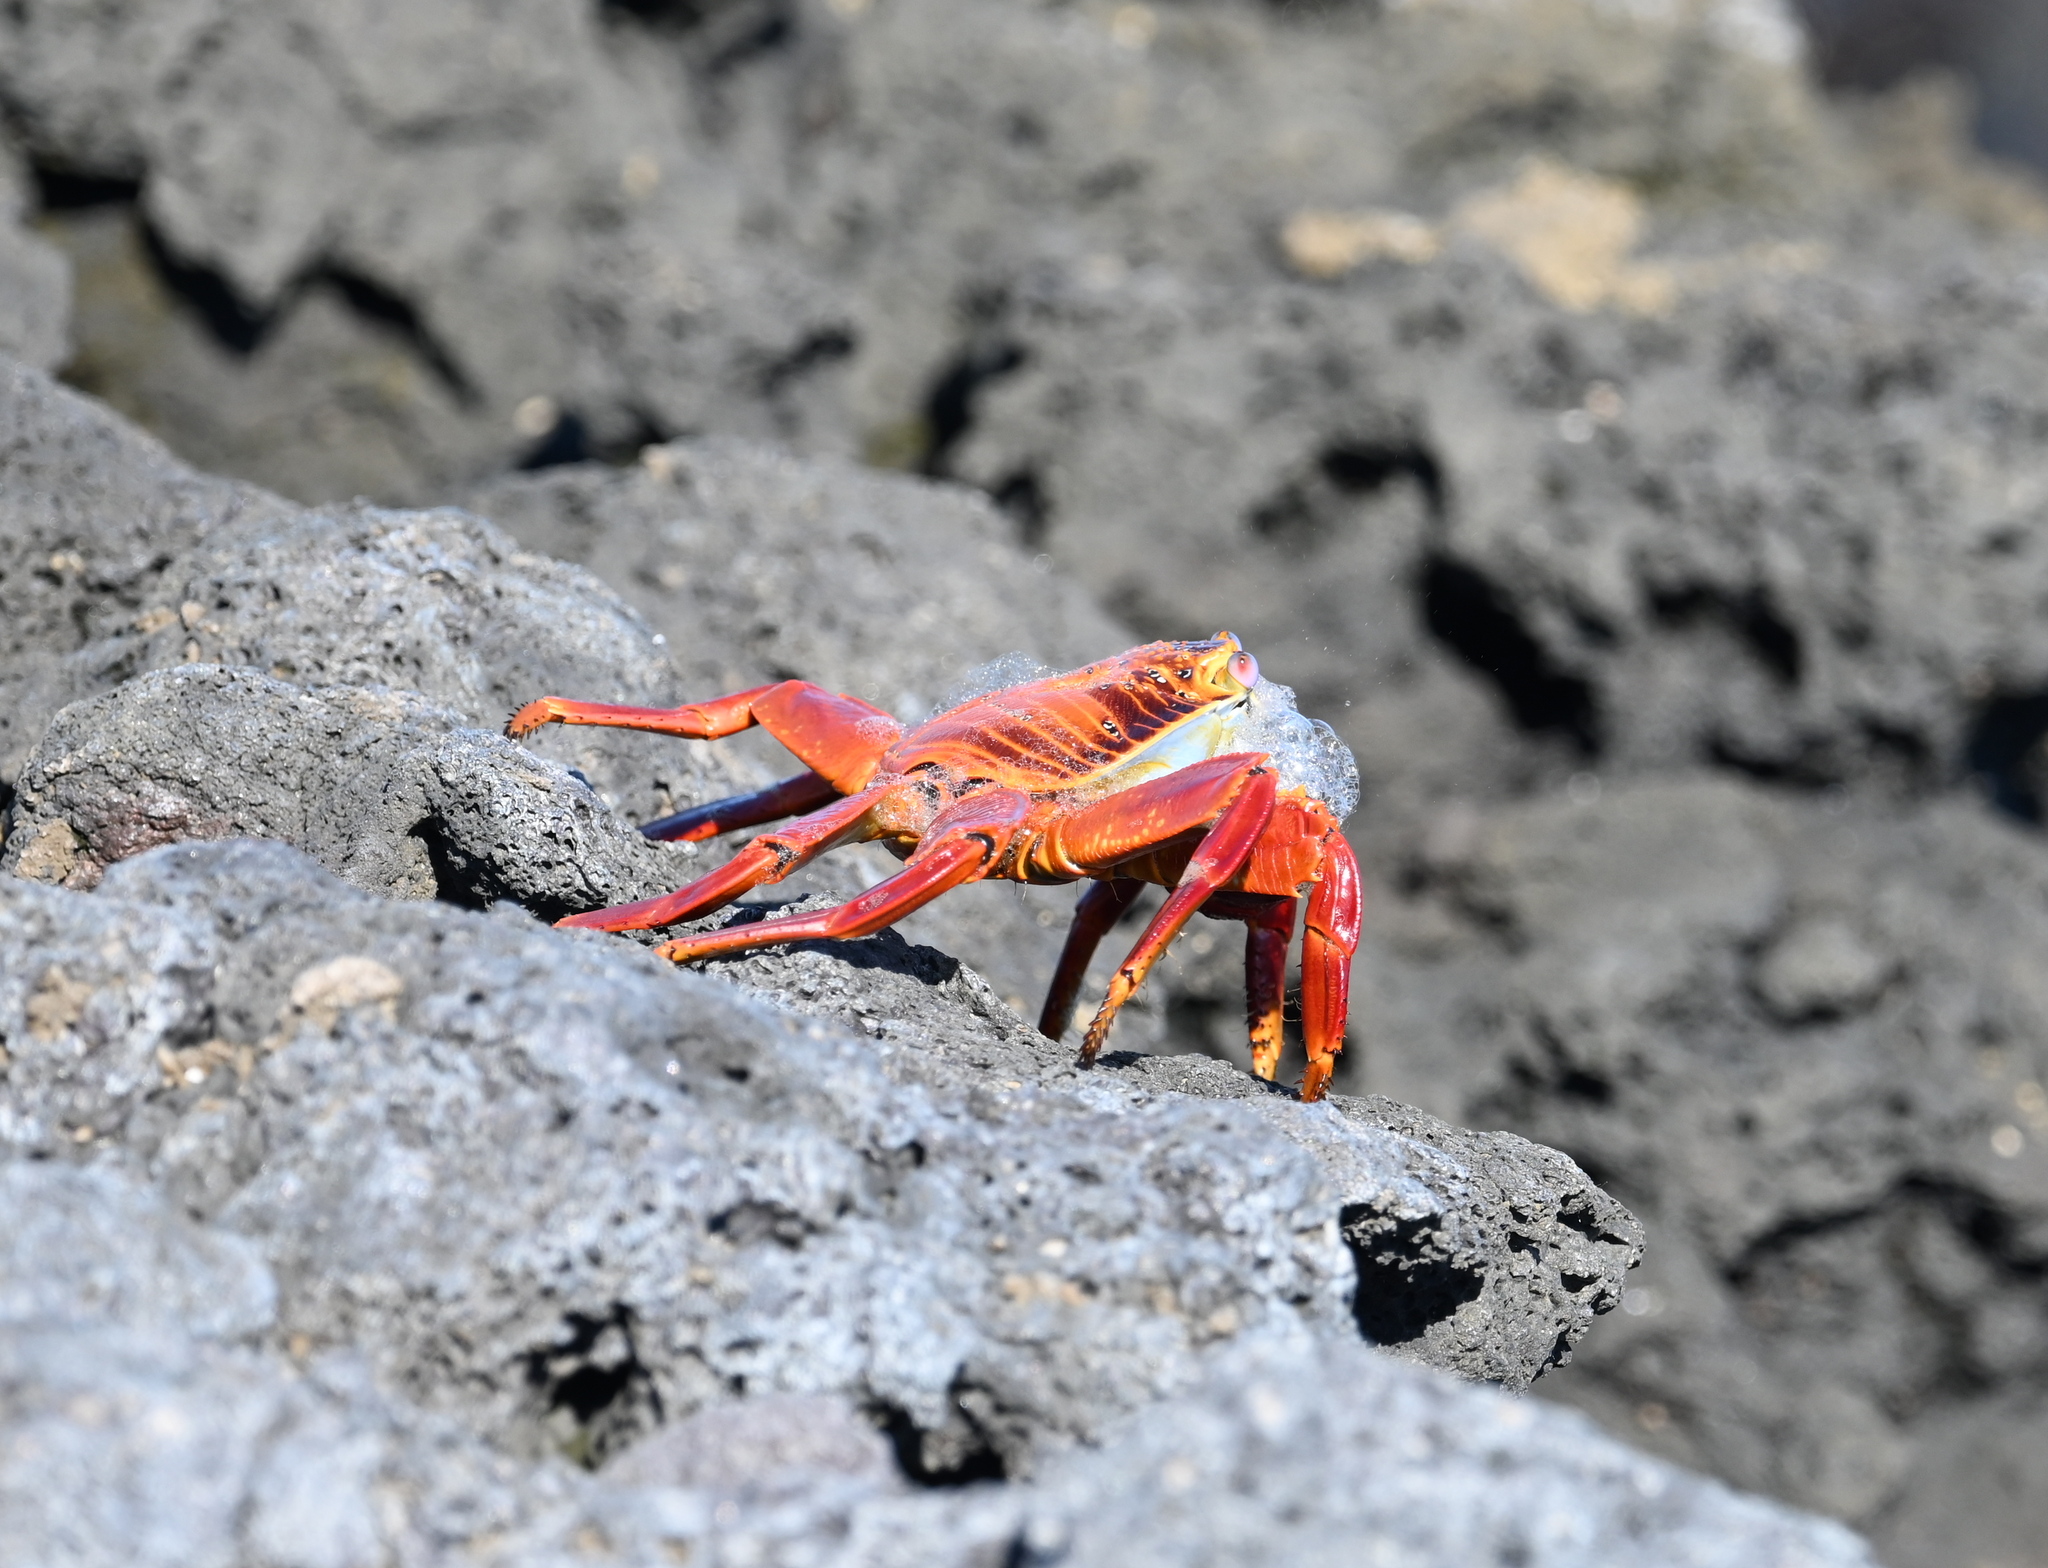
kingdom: Animalia
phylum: Arthropoda
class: Malacostraca
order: Decapoda
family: Grapsidae
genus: Grapsus
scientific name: Grapsus grapsus
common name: Sally lightfoot
